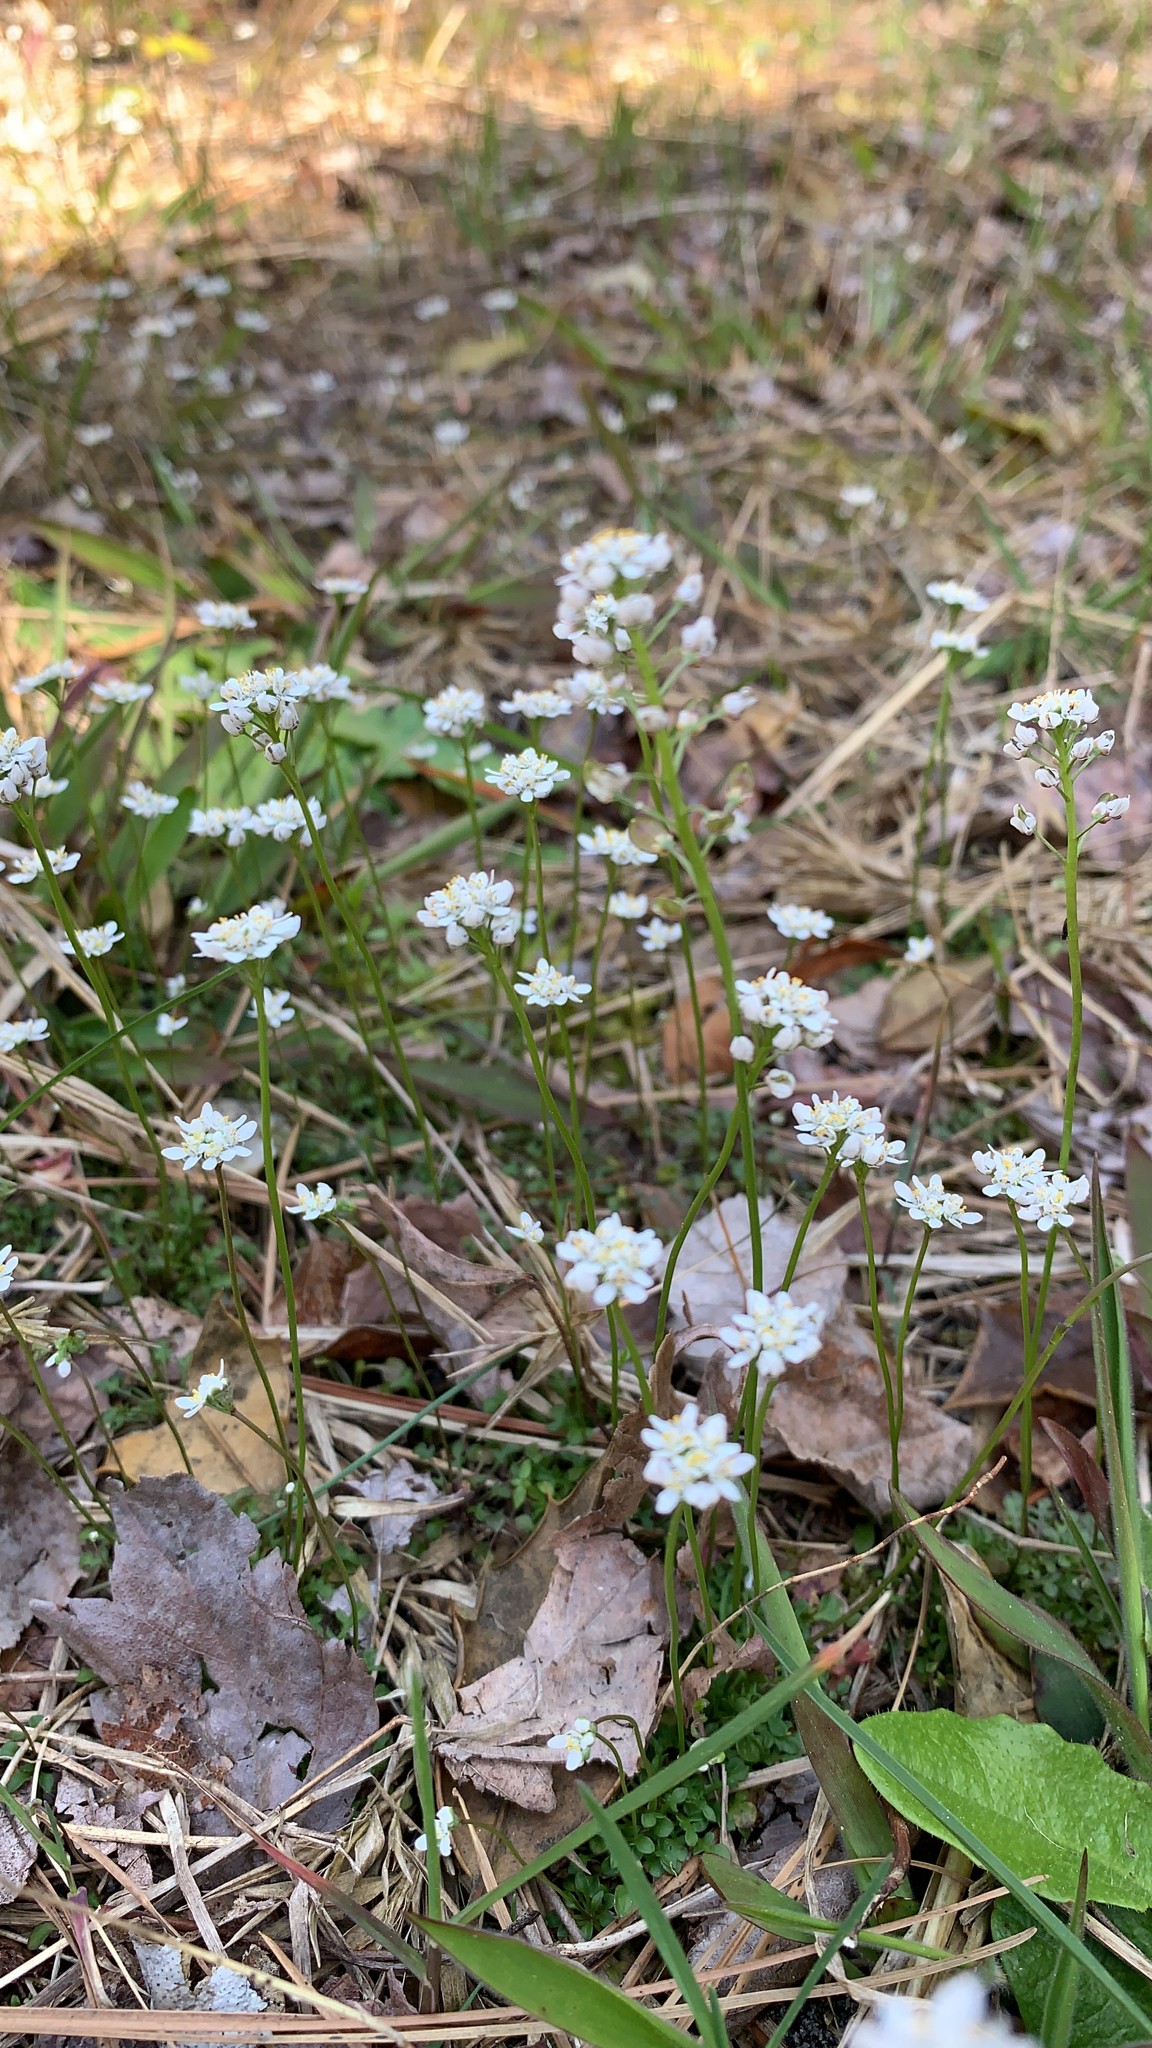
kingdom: Plantae
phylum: Tracheophyta
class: Magnoliopsida
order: Brassicales
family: Brassicaceae
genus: Teesdalia
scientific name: Teesdalia nudicaulis
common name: Shepherd's cress
